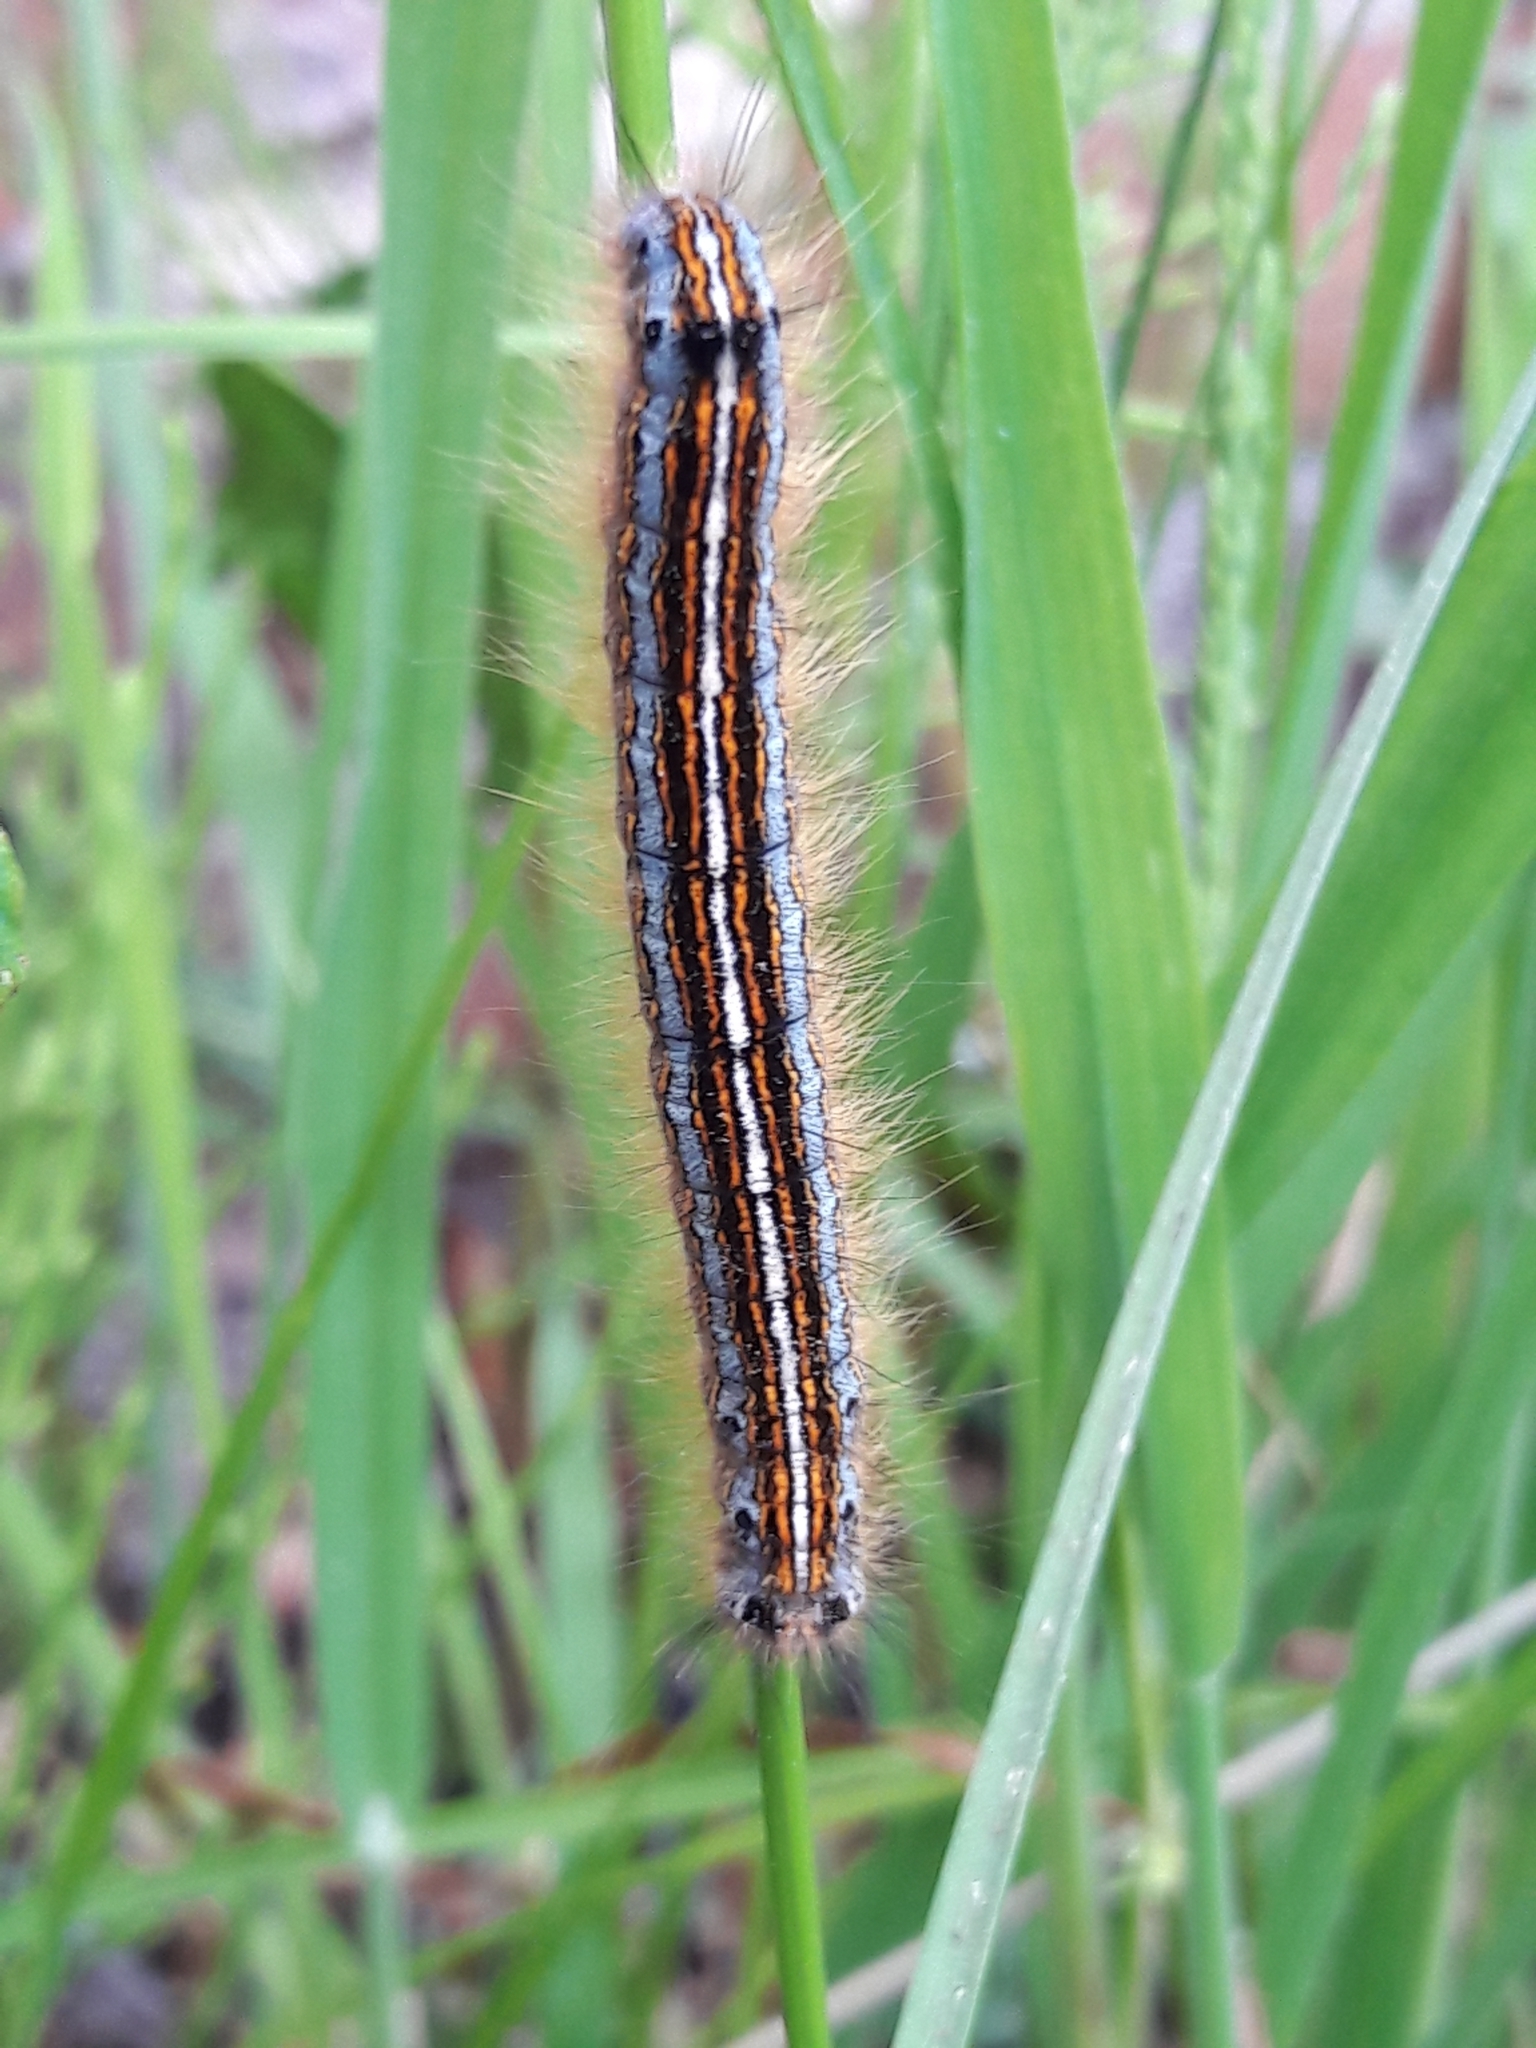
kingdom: Animalia
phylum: Arthropoda
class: Insecta
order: Lepidoptera
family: Lasiocampidae
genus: Malacosoma
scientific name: Malacosoma neustria
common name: The lackey
